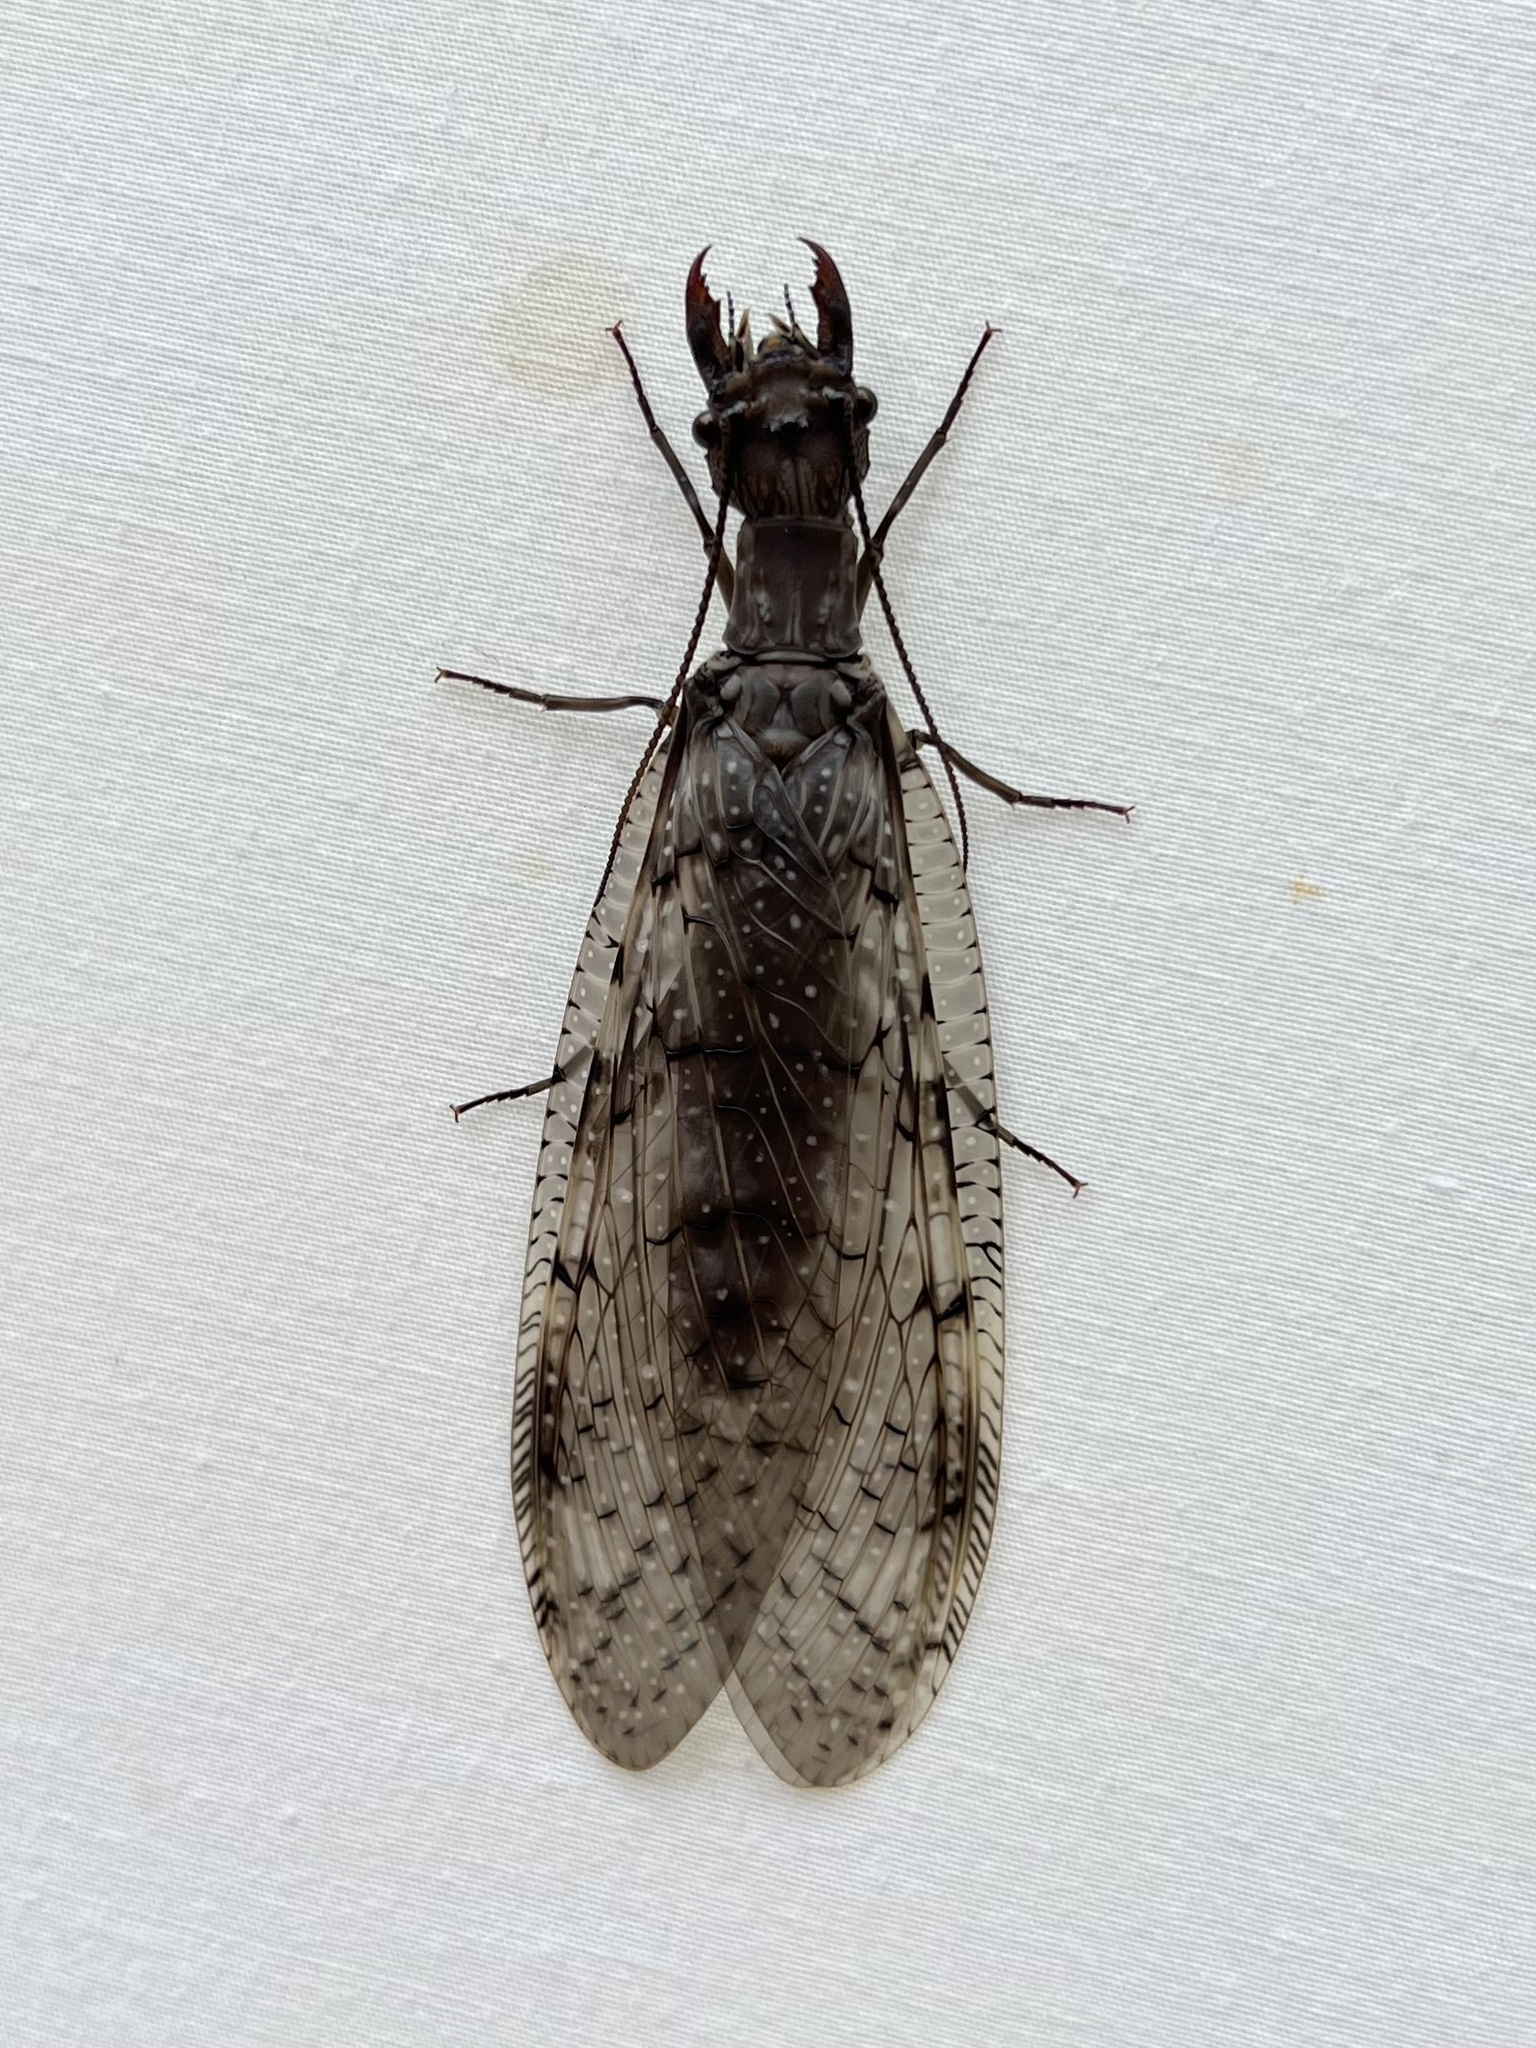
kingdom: Animalia
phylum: Arthropoda
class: Insecta
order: Megaloptera
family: Corydalidae
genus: Corydalus
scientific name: Corydalus cornutus
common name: Dobsonfly
